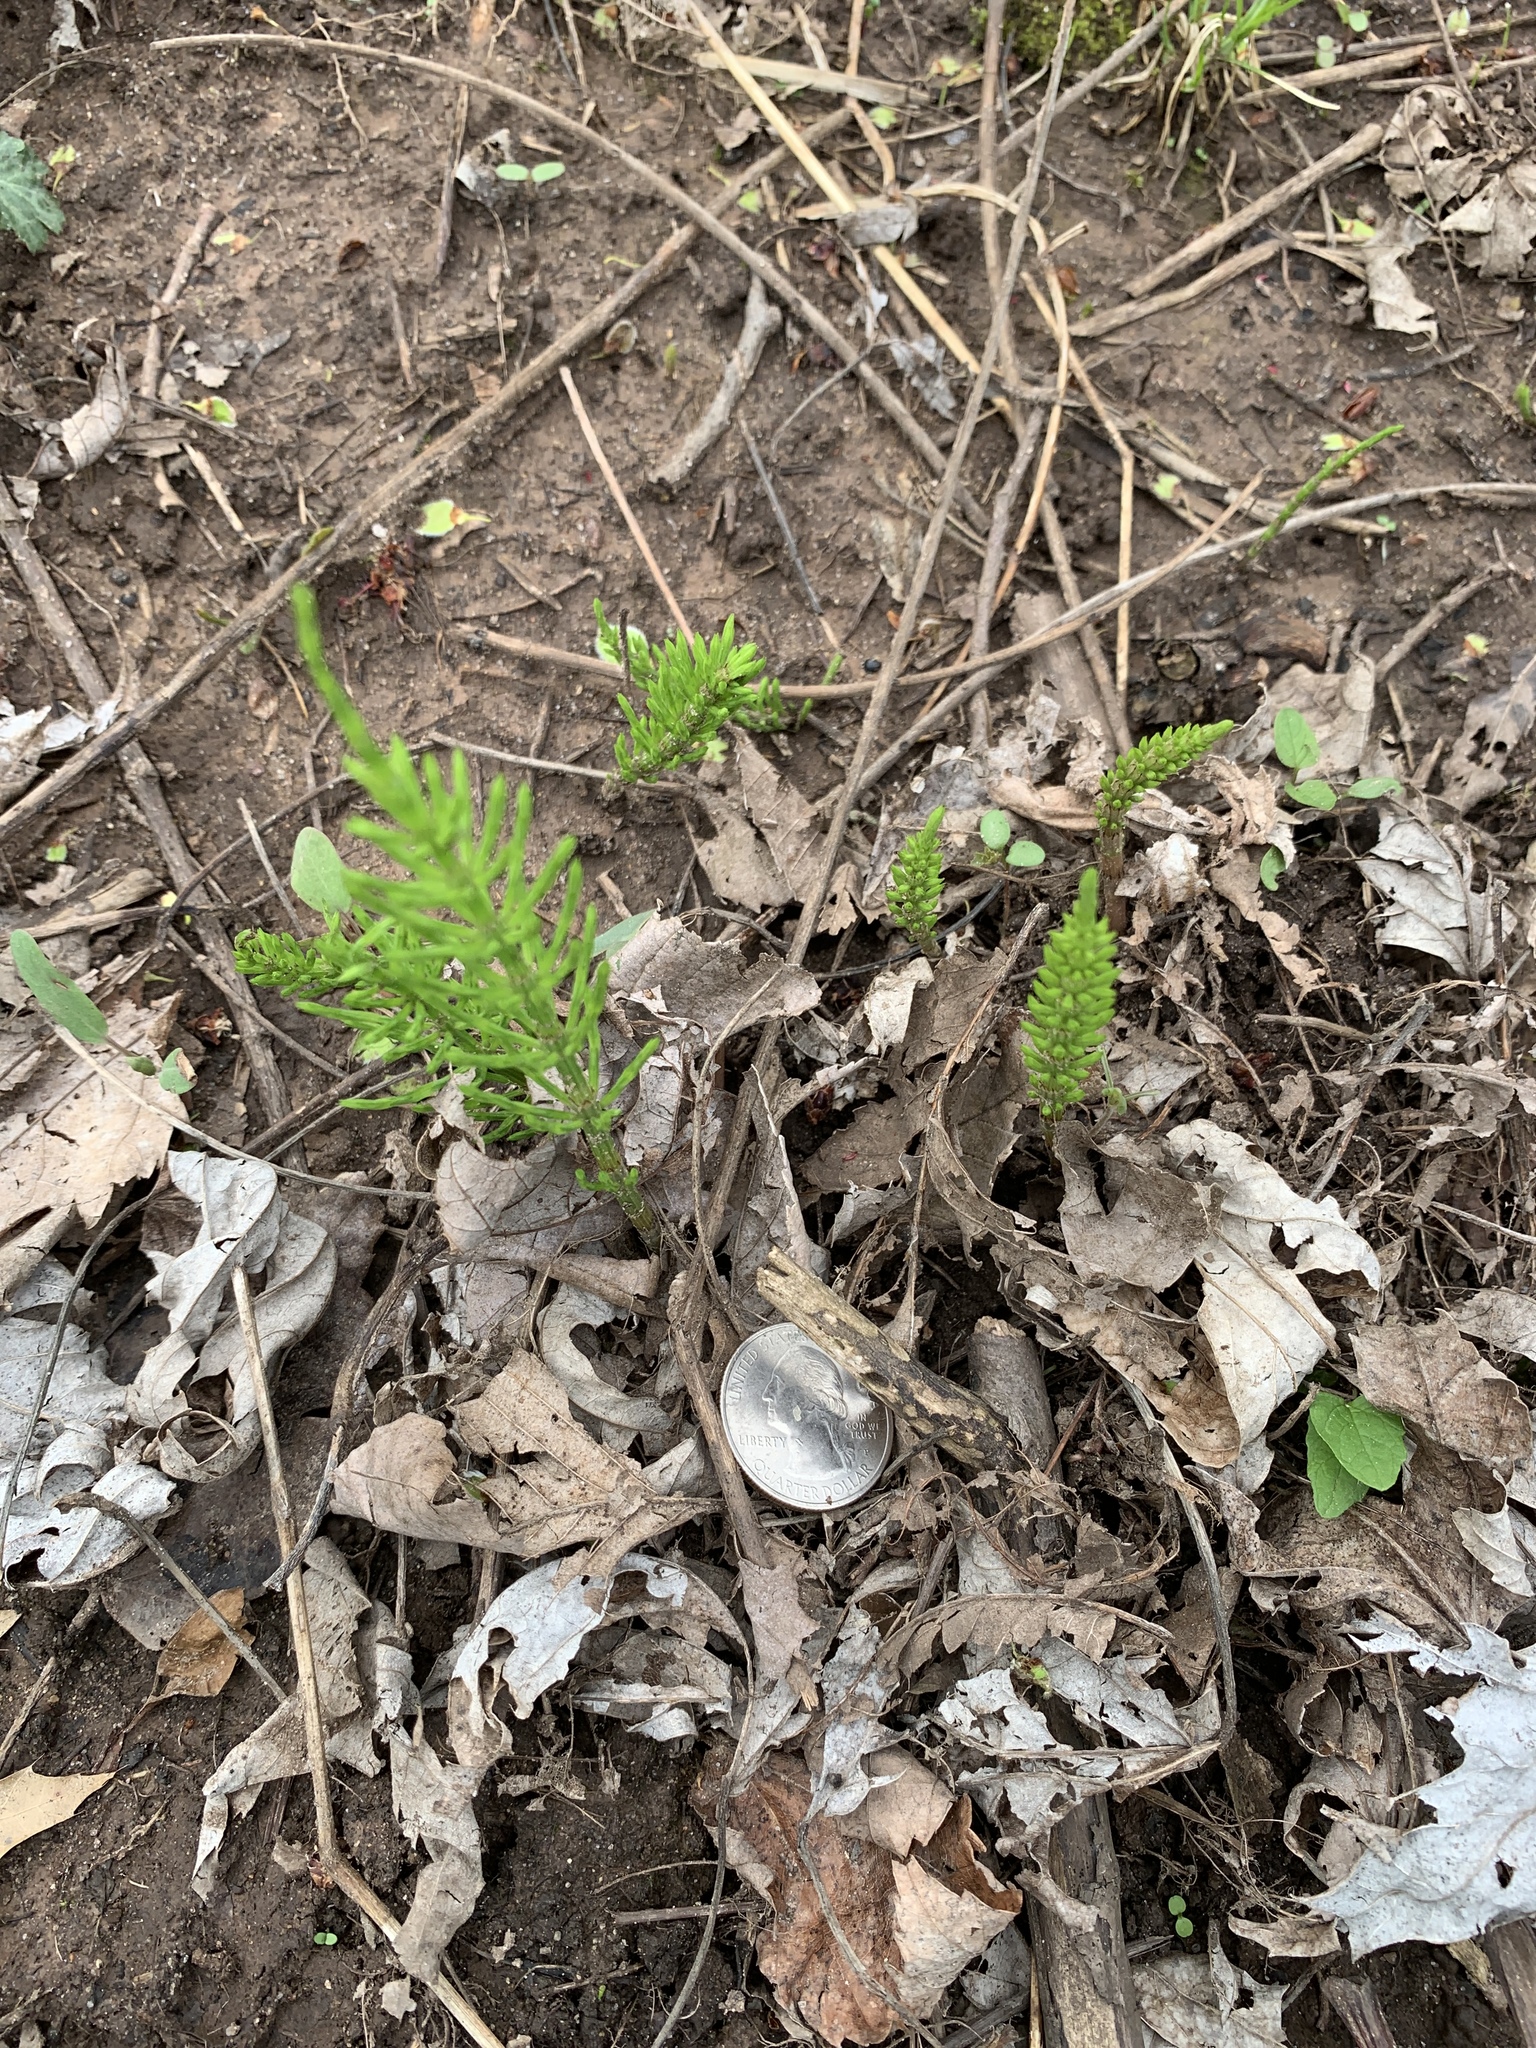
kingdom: Plantae
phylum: Tracheophyta
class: Polypodiopsida
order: Equisetales
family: Equisetaceae
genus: Equisetum
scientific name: Equisetum arvense
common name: Field horsetail
